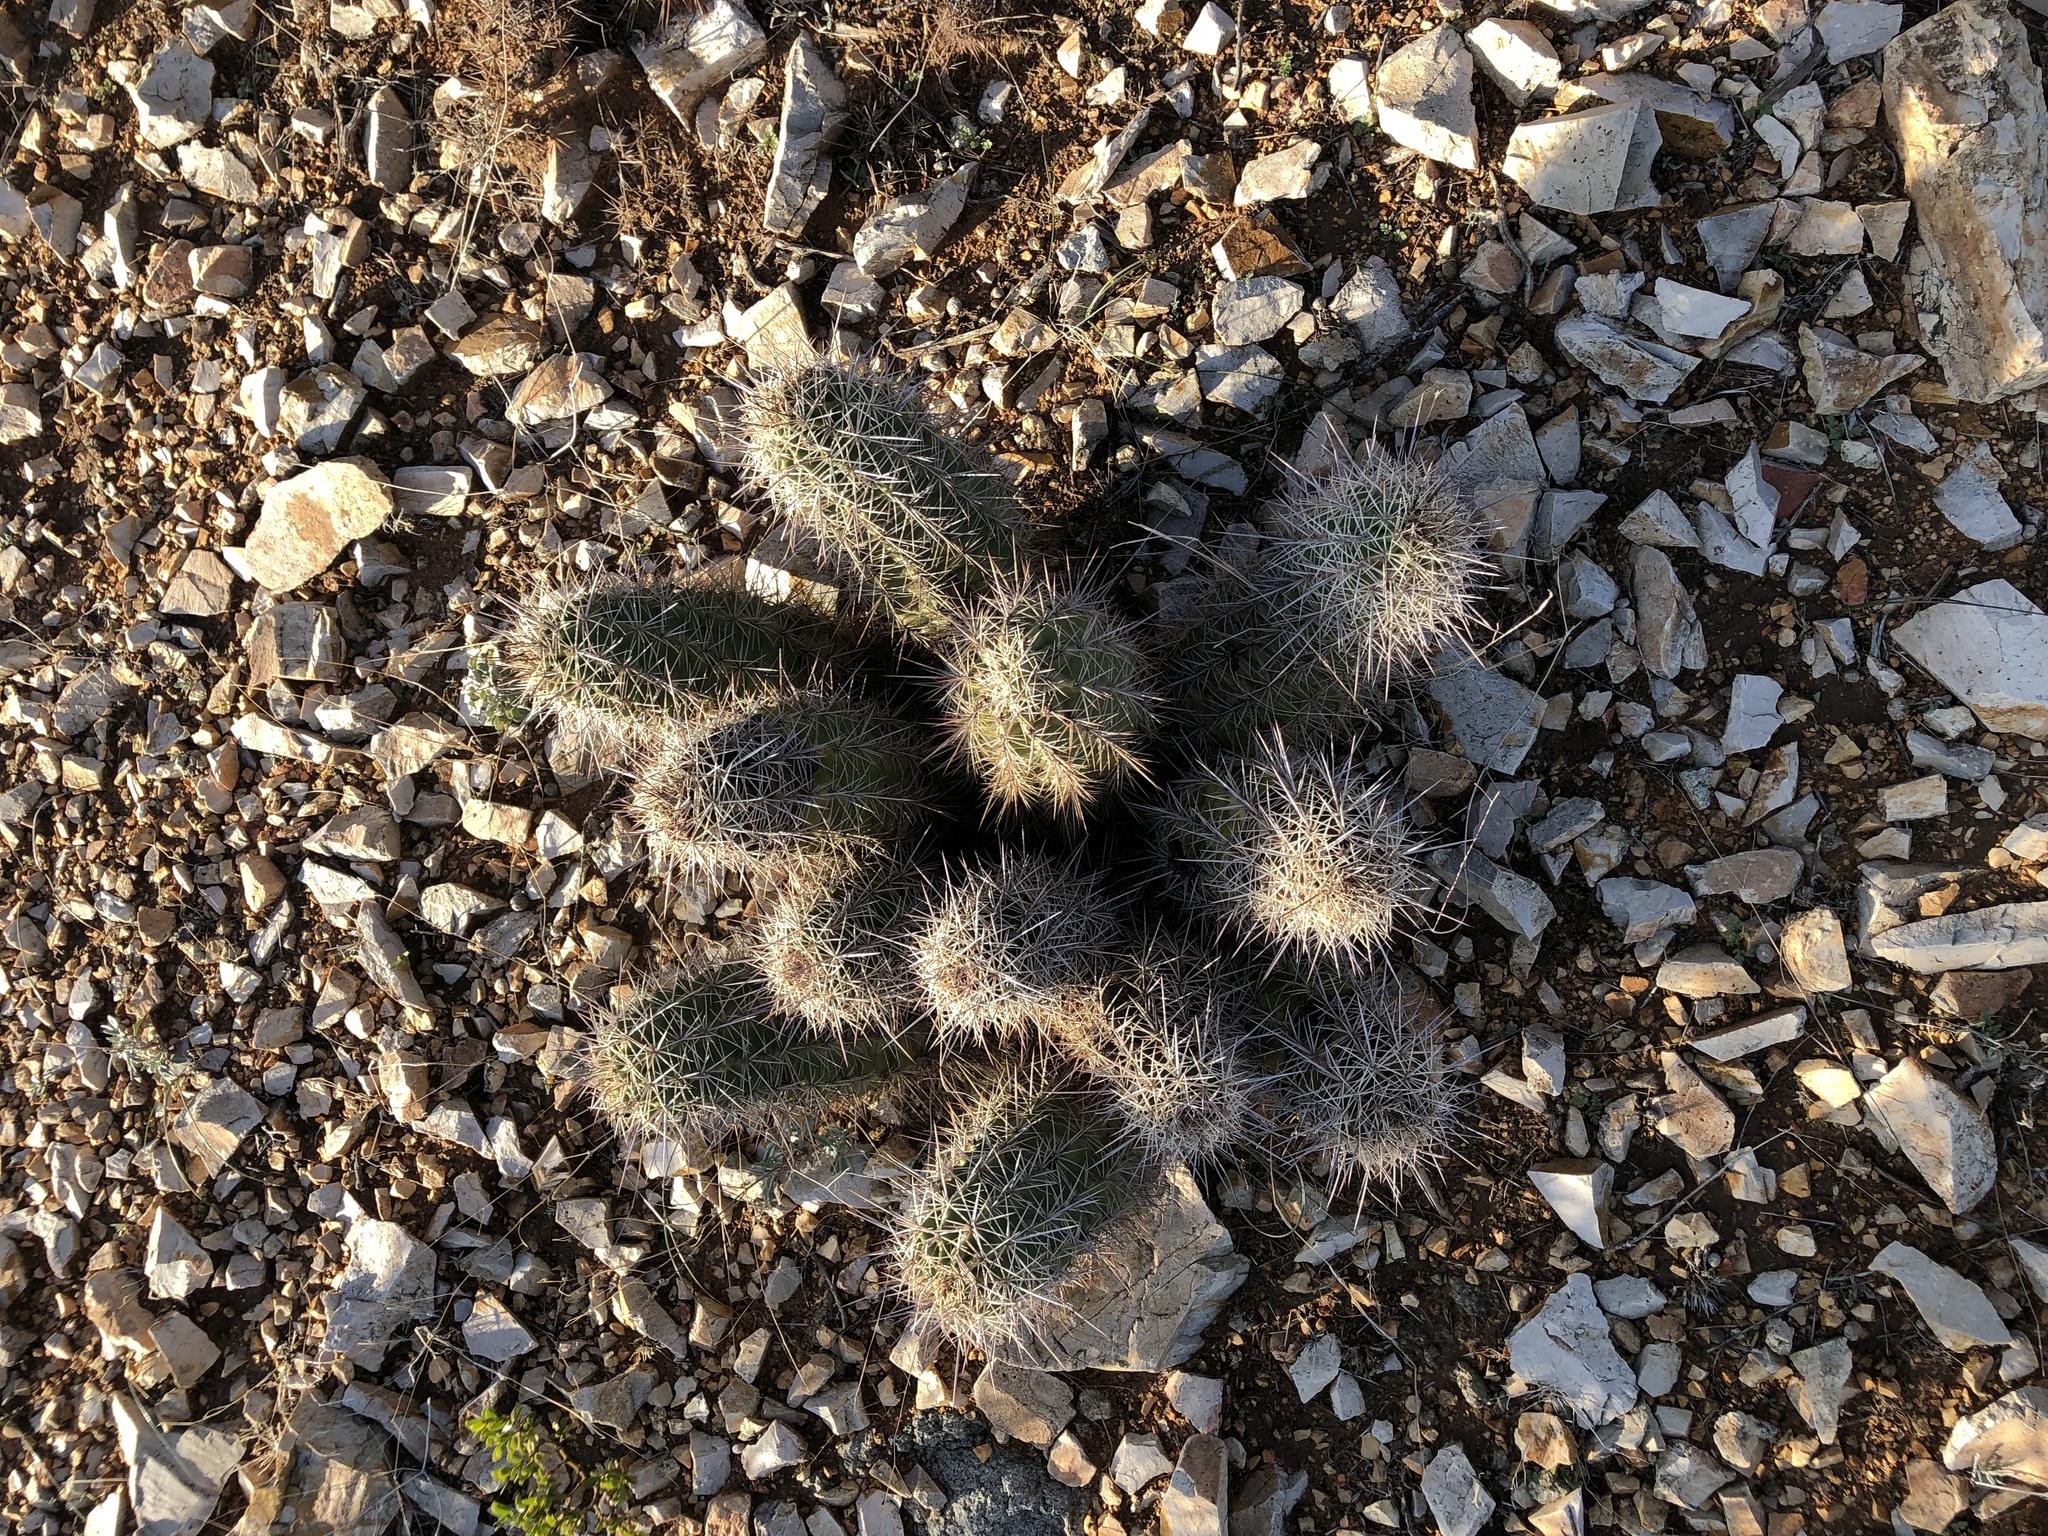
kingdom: Plantae
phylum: Tracheophyta
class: Magnoliopsida
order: Caryophyllales
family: Cactaceae
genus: Echinocereus
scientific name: Echinocereus coccineus
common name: Scarlet hedgehog cactus
